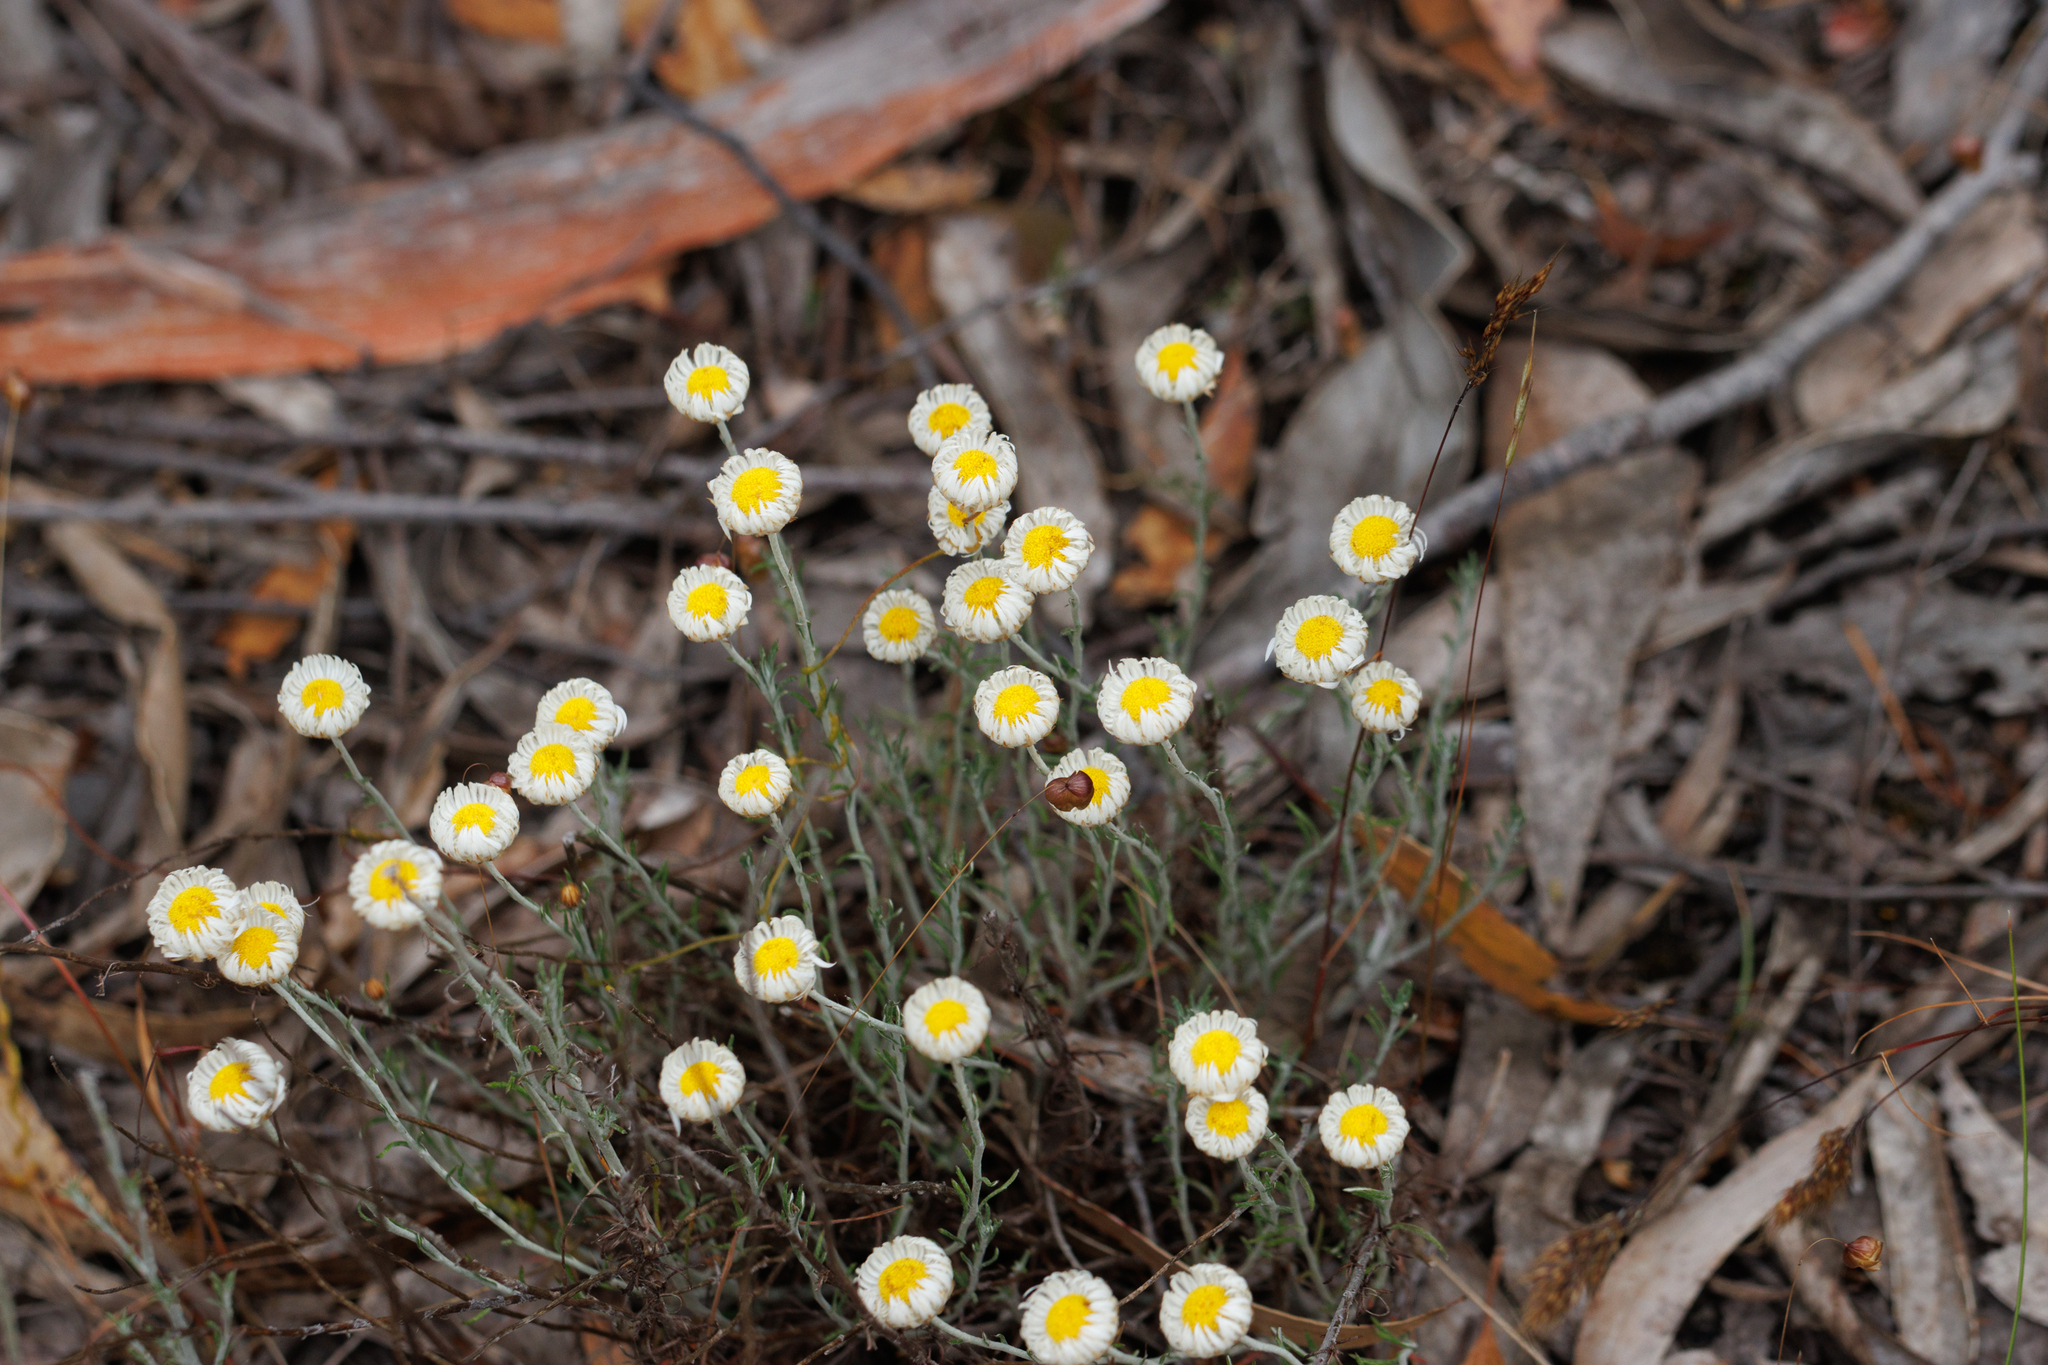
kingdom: Plantae
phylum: Tracheophyta
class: Magnoliopsida
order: Asterales
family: Asteraceae
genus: Chrysocephalum
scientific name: Chrysocephalum baxteri
